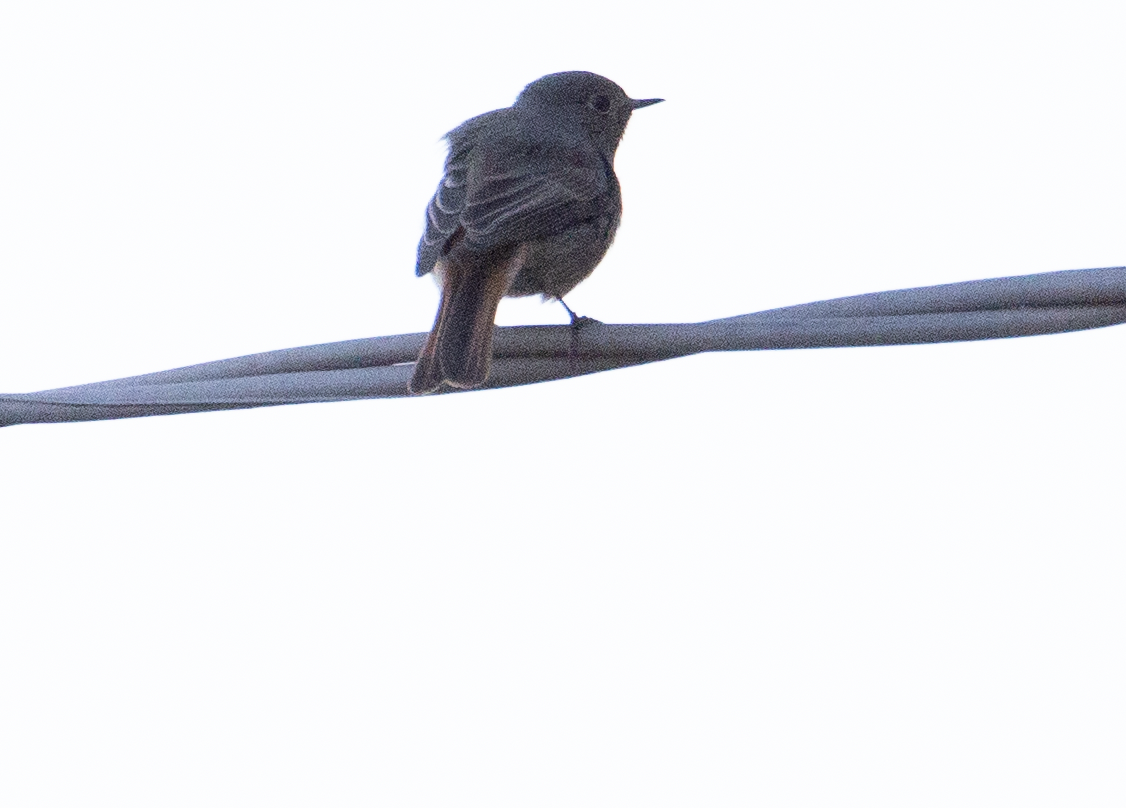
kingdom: Animalia
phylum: Chordata
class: Aves
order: Passeriformes
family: Muscicapidae
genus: Phoenicurus
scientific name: Phoenicurus ochruros
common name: Black redstart
